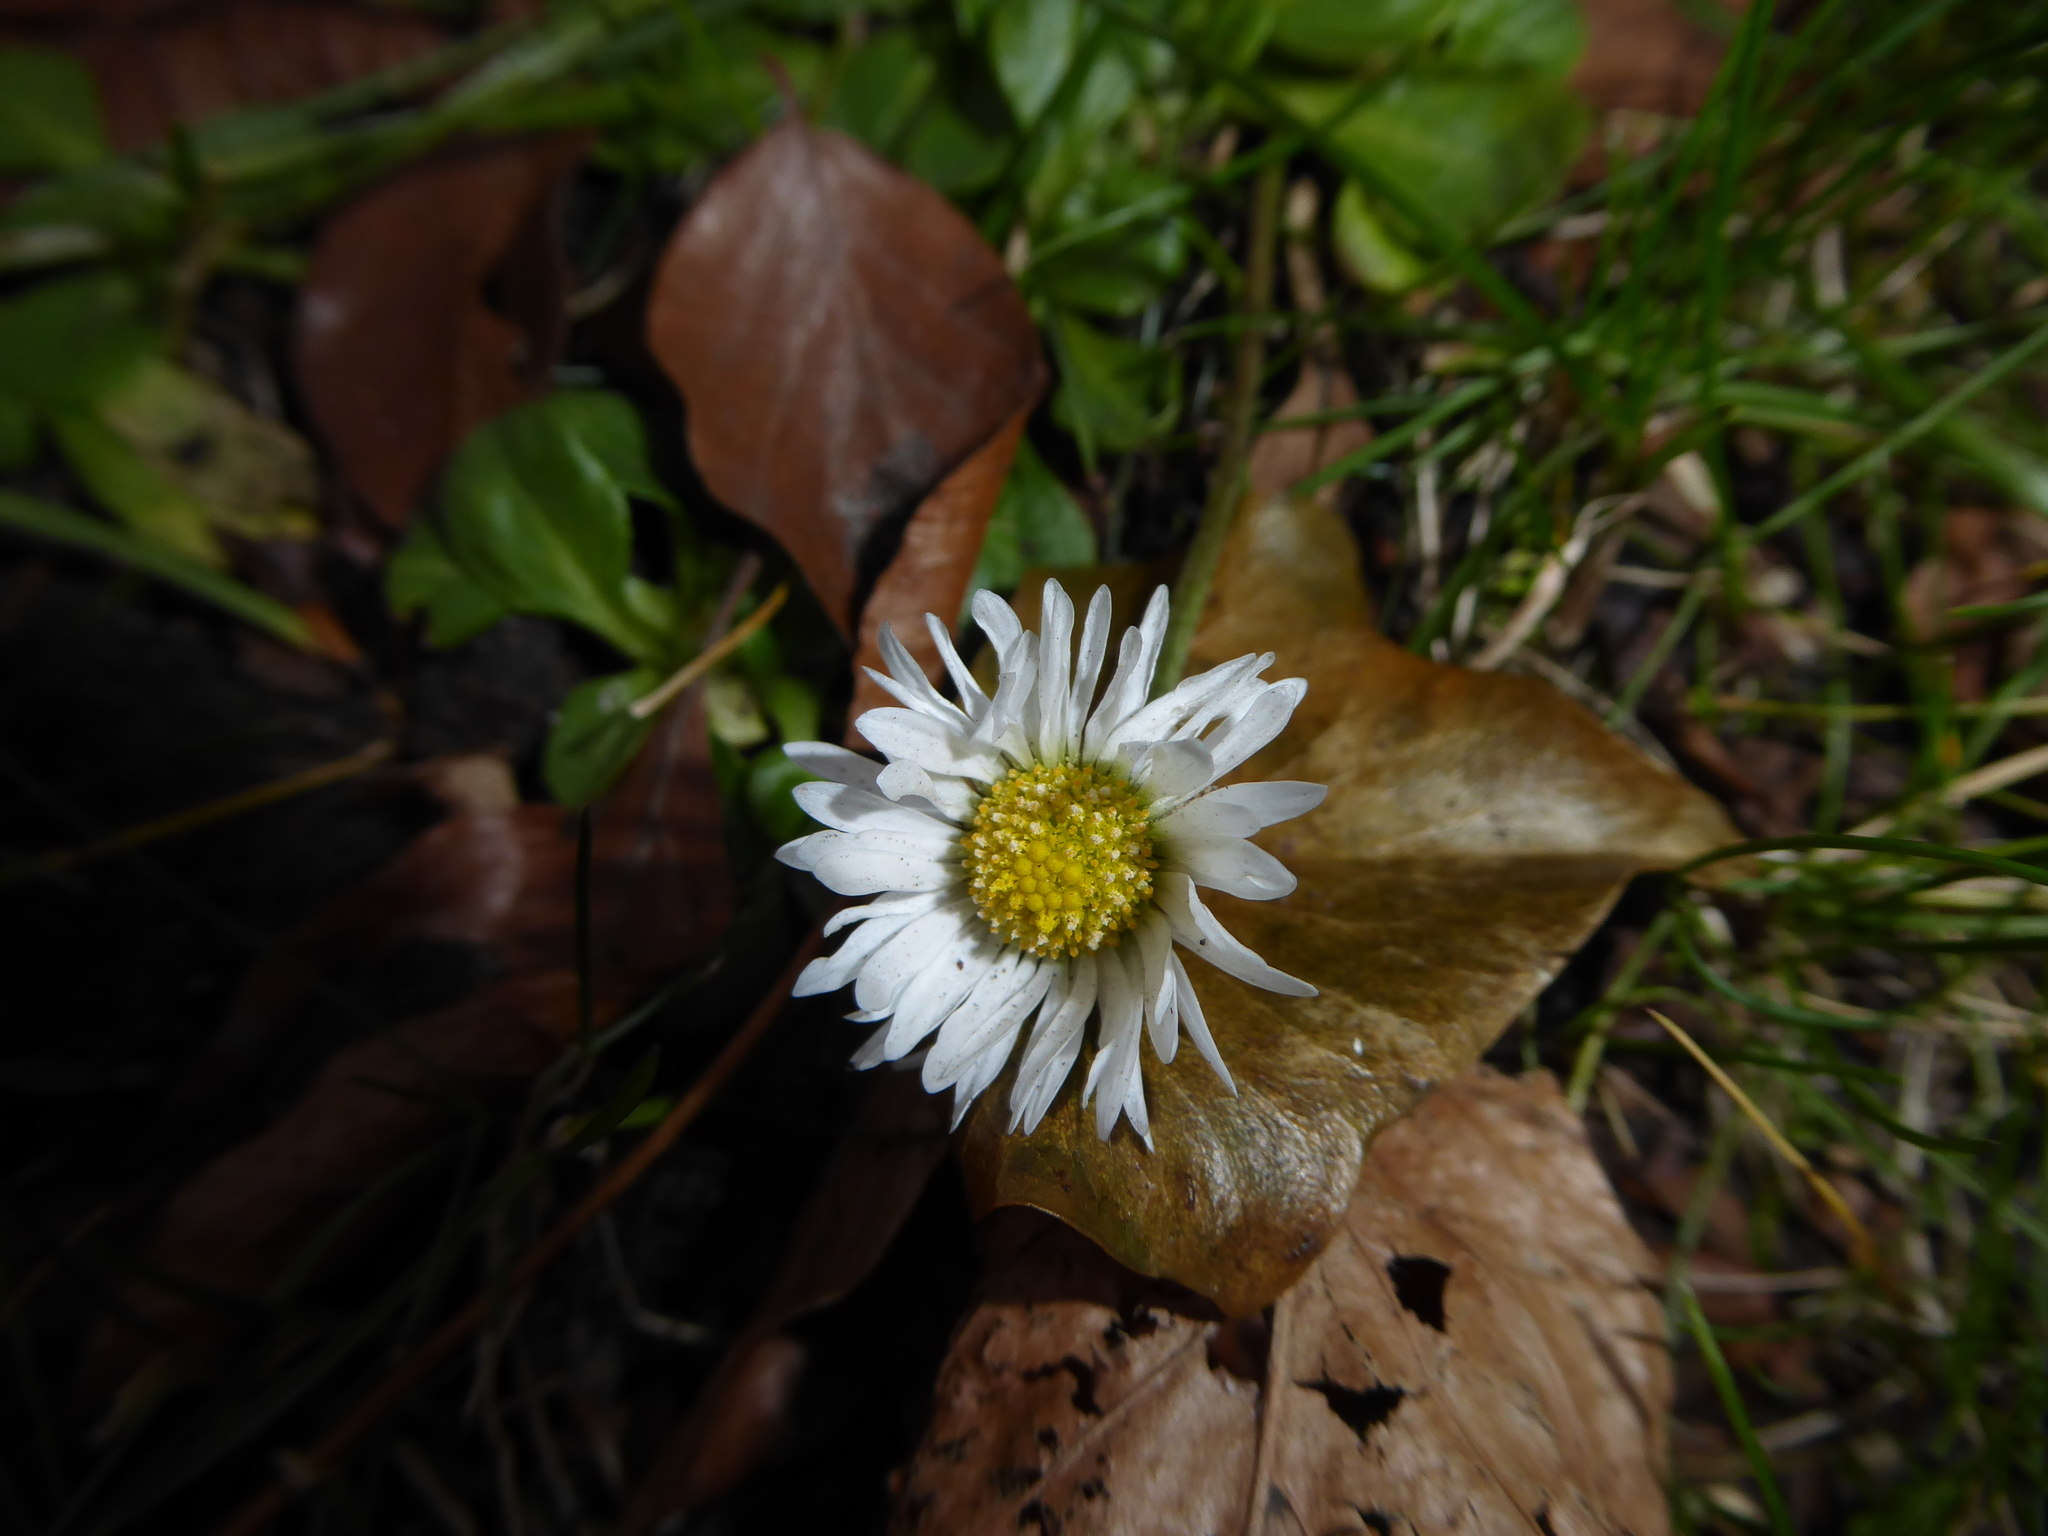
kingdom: Plantae
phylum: Tracheophyta
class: Magnoliopsida
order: Asterales
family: Asteraceae
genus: Bellis
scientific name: Bellis perennis
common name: Lawndaisy
